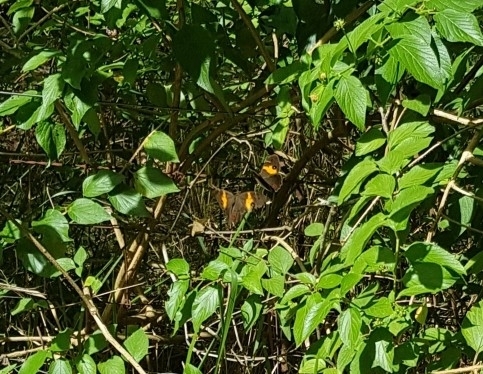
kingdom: Animalia
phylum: Arthropoda
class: Insecta
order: Lepidoptera
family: Nymphalidae
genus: Tisiphone
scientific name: Tisiphone abeona
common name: Swordgrass brown
